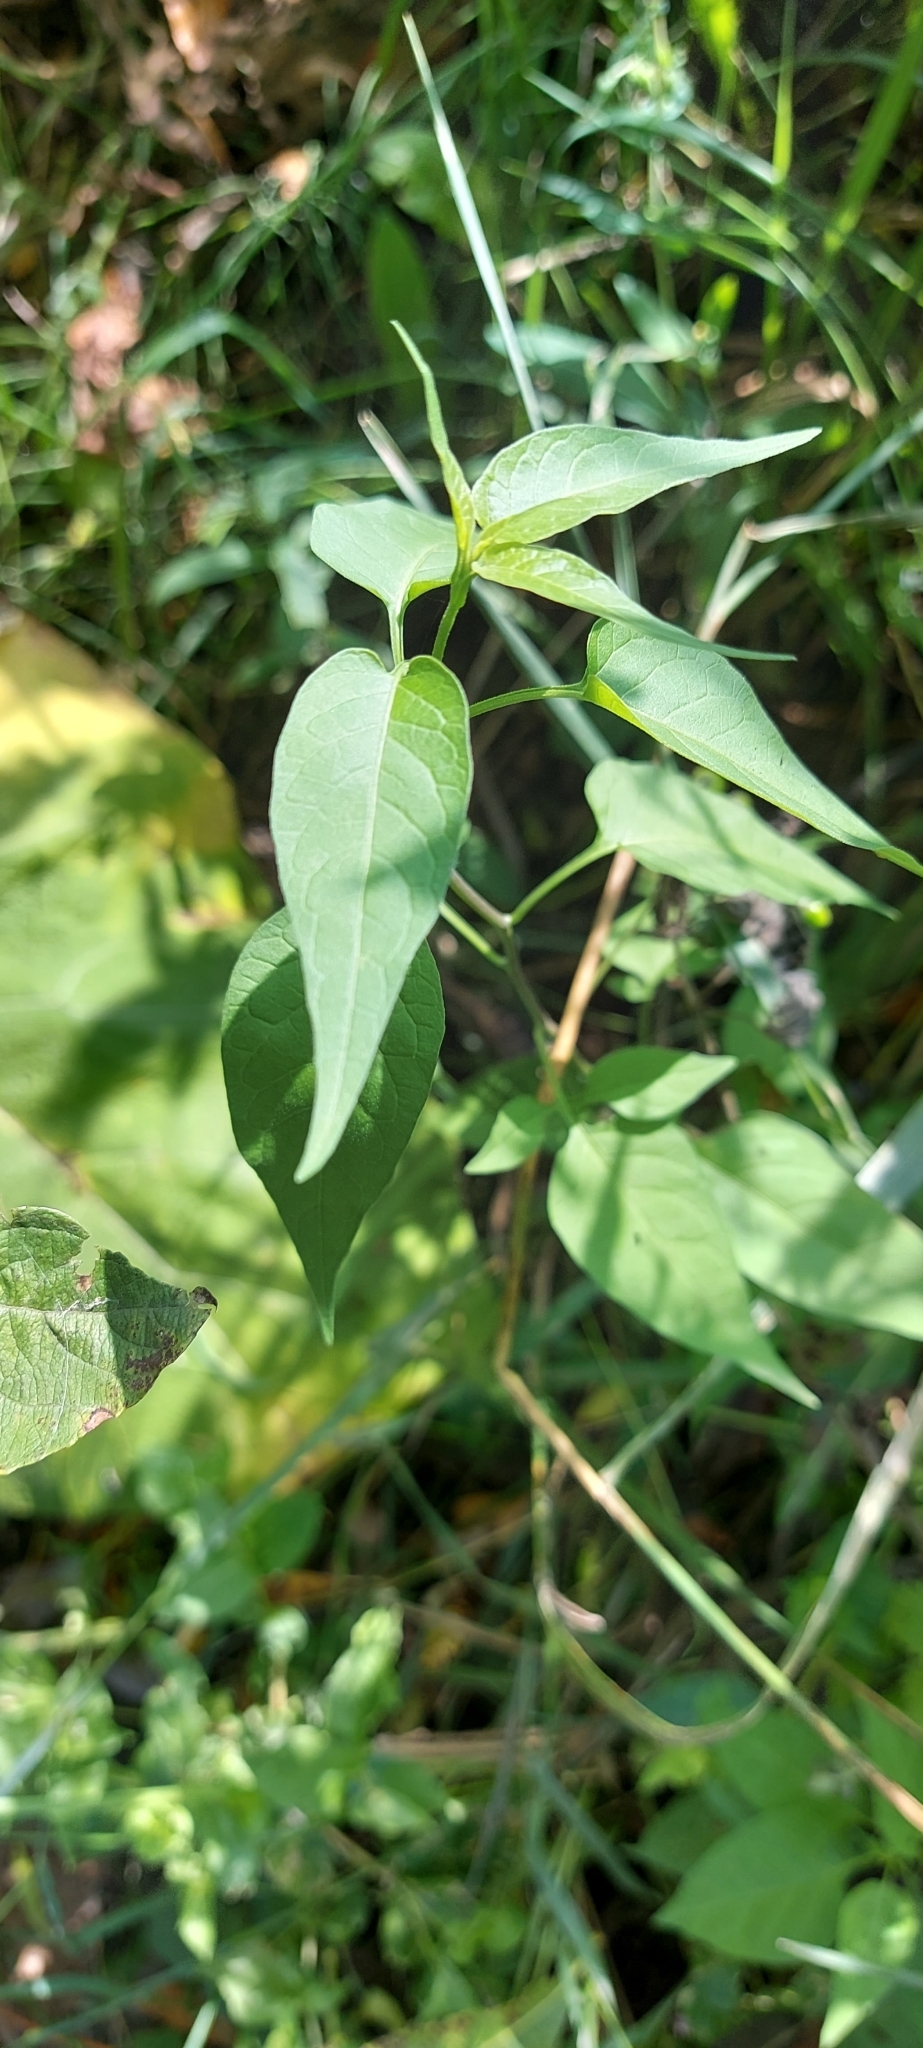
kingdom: Plantae
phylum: Tracheophyta
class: Magnoliopsida
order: Solanales
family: Solanaceae
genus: Solanum
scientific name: Solanum dulcamara
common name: Climbing nightshade
